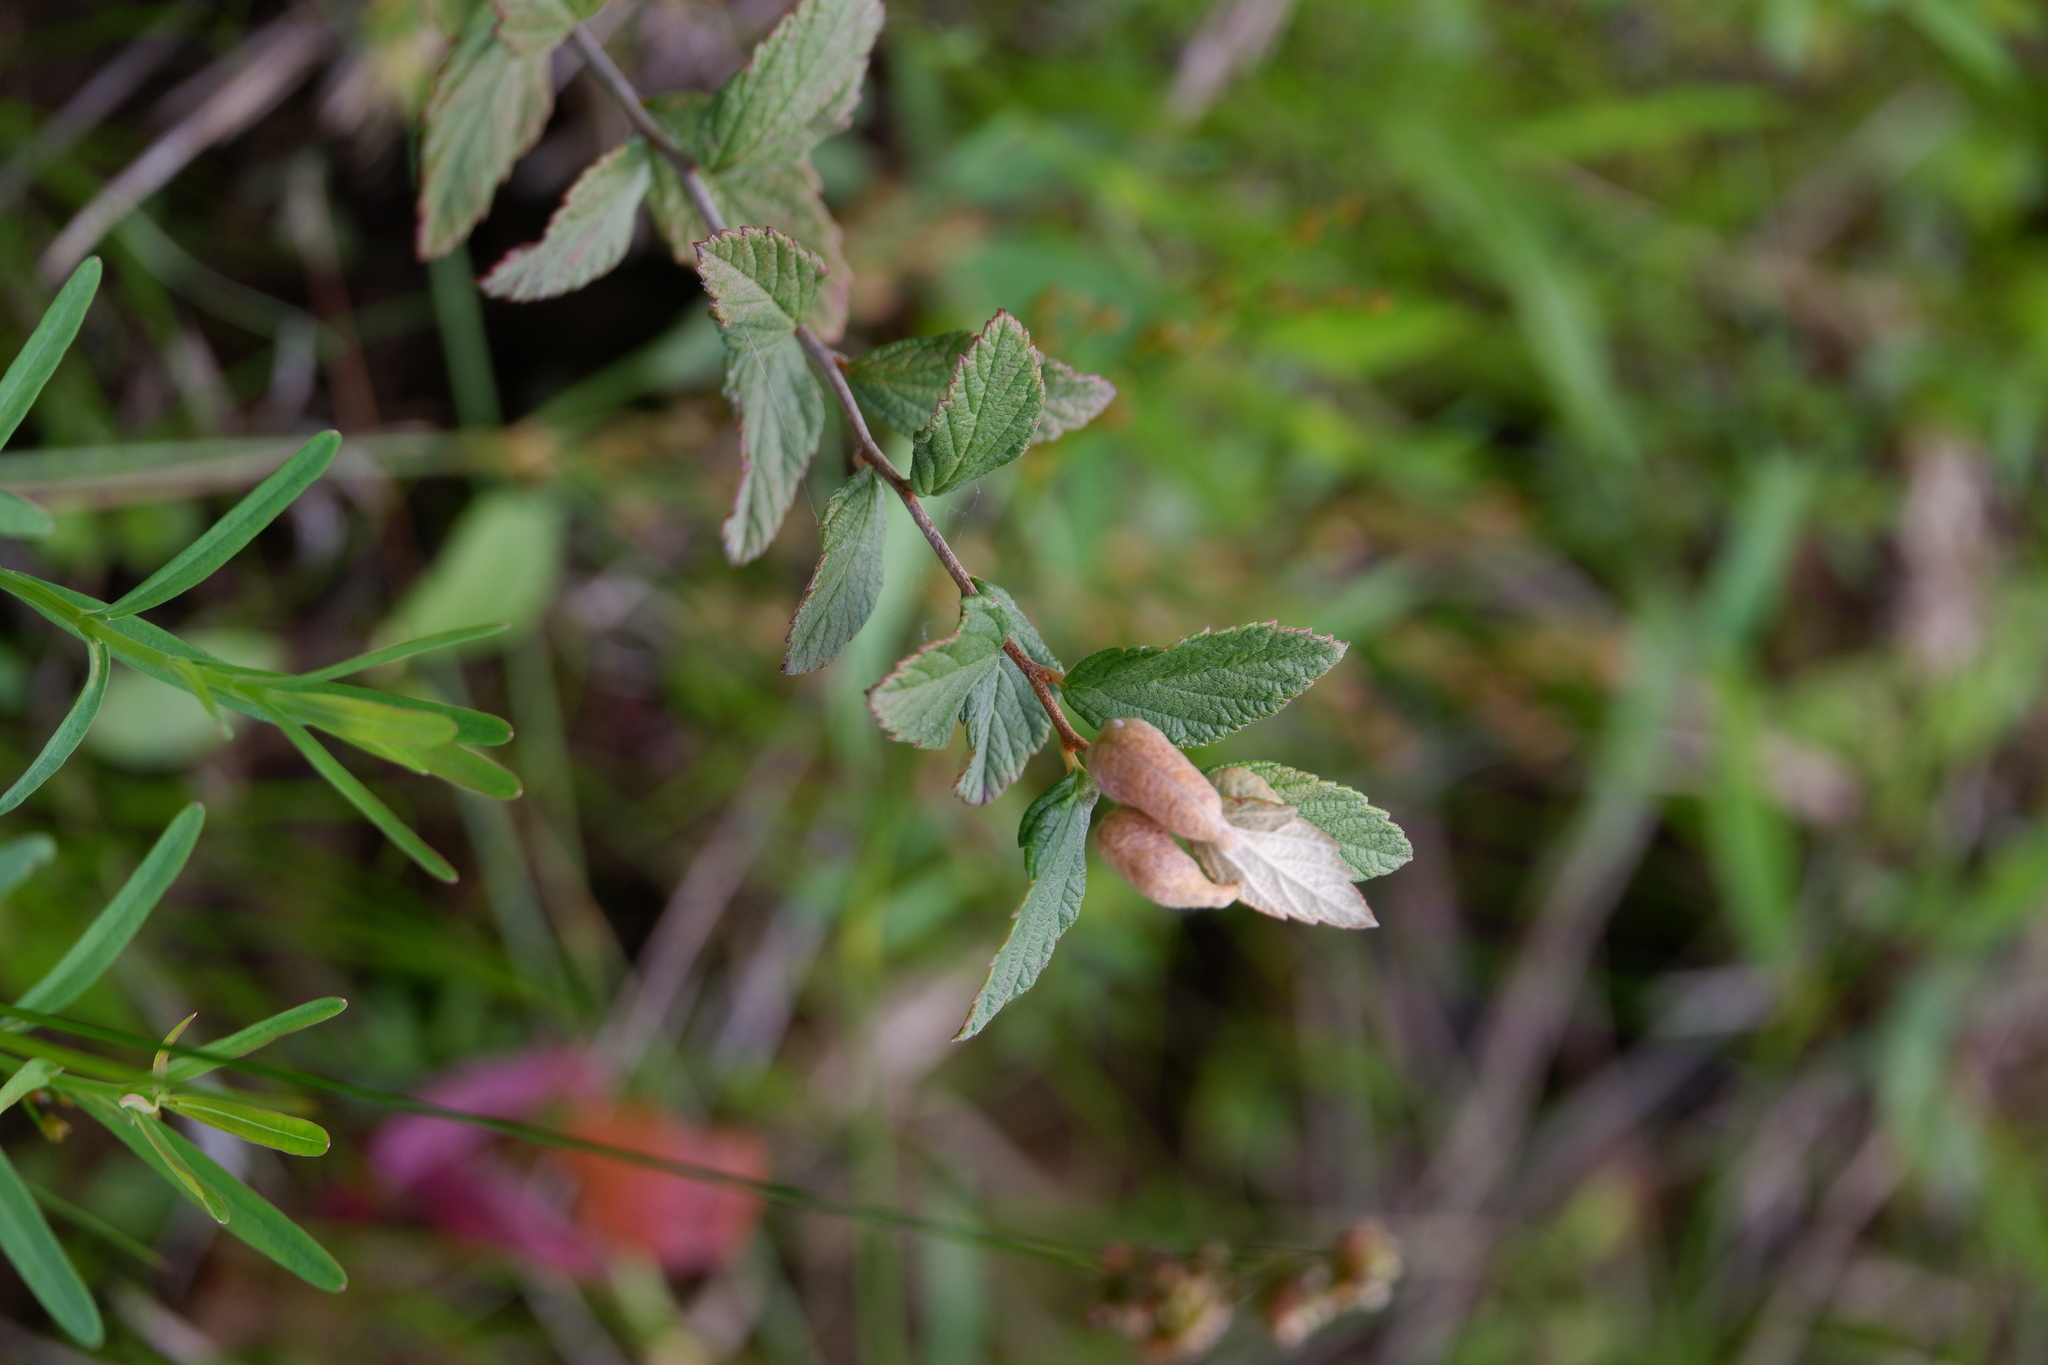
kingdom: Animalia
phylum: Arthropoda
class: Insecta
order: Diptera
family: Cecidomyiidae
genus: Dasineura
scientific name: Dasineura salicifoliae
